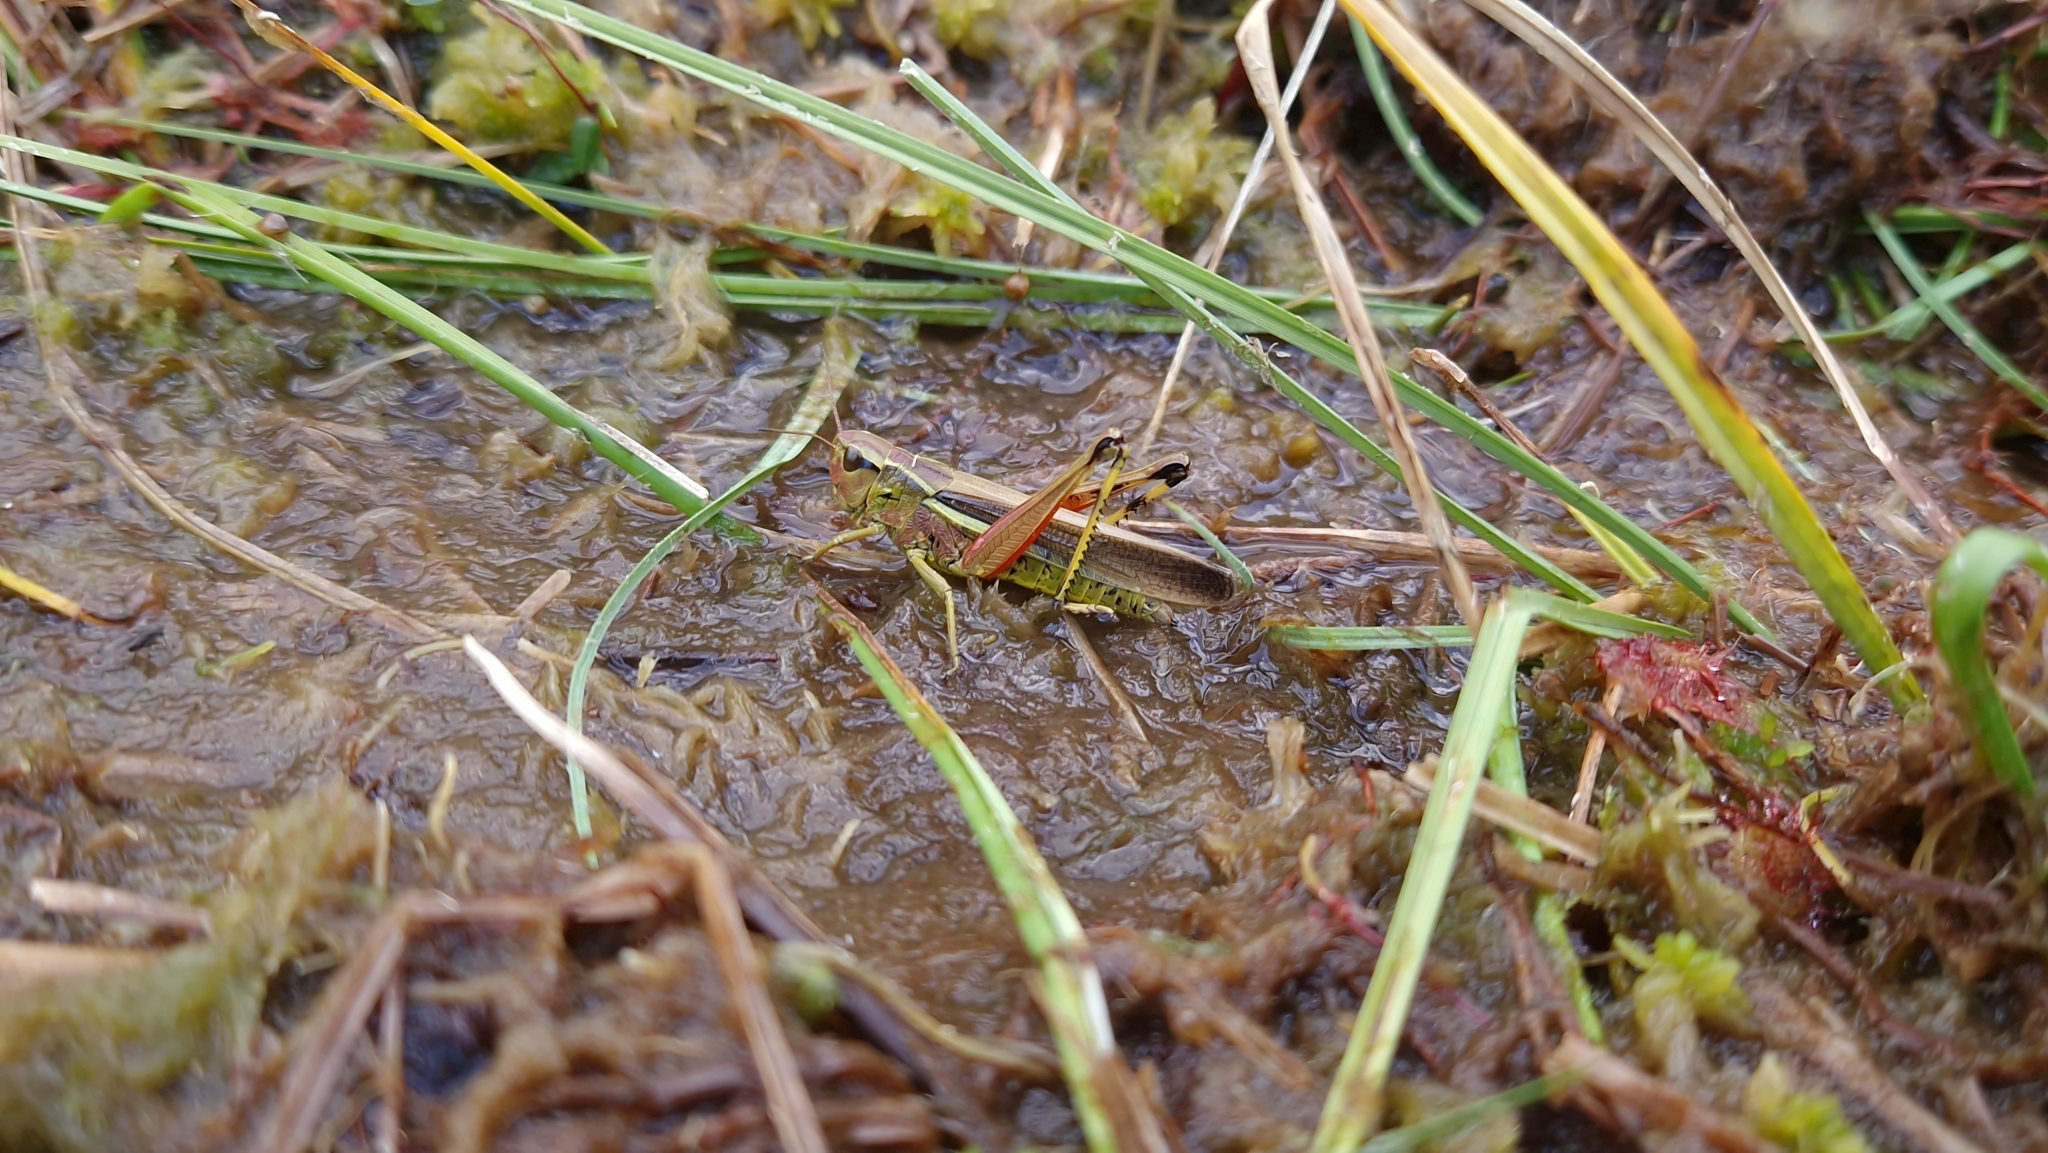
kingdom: Animalia
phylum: Arthropoda
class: Insecta
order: Orthoptera
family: Acrididae
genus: Stethophyma
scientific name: Stethophyma grossum
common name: Large marsh grasshopper
